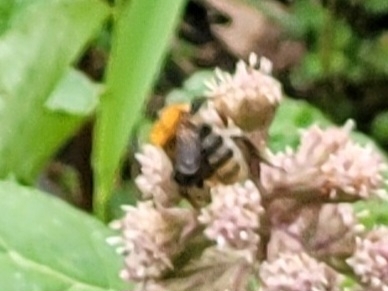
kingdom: Animalia
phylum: Arthropoda
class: Insecta
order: Hymenoptera
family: Apidae
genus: Bombus
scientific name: Bombus pascuorum
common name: Common carder bee
